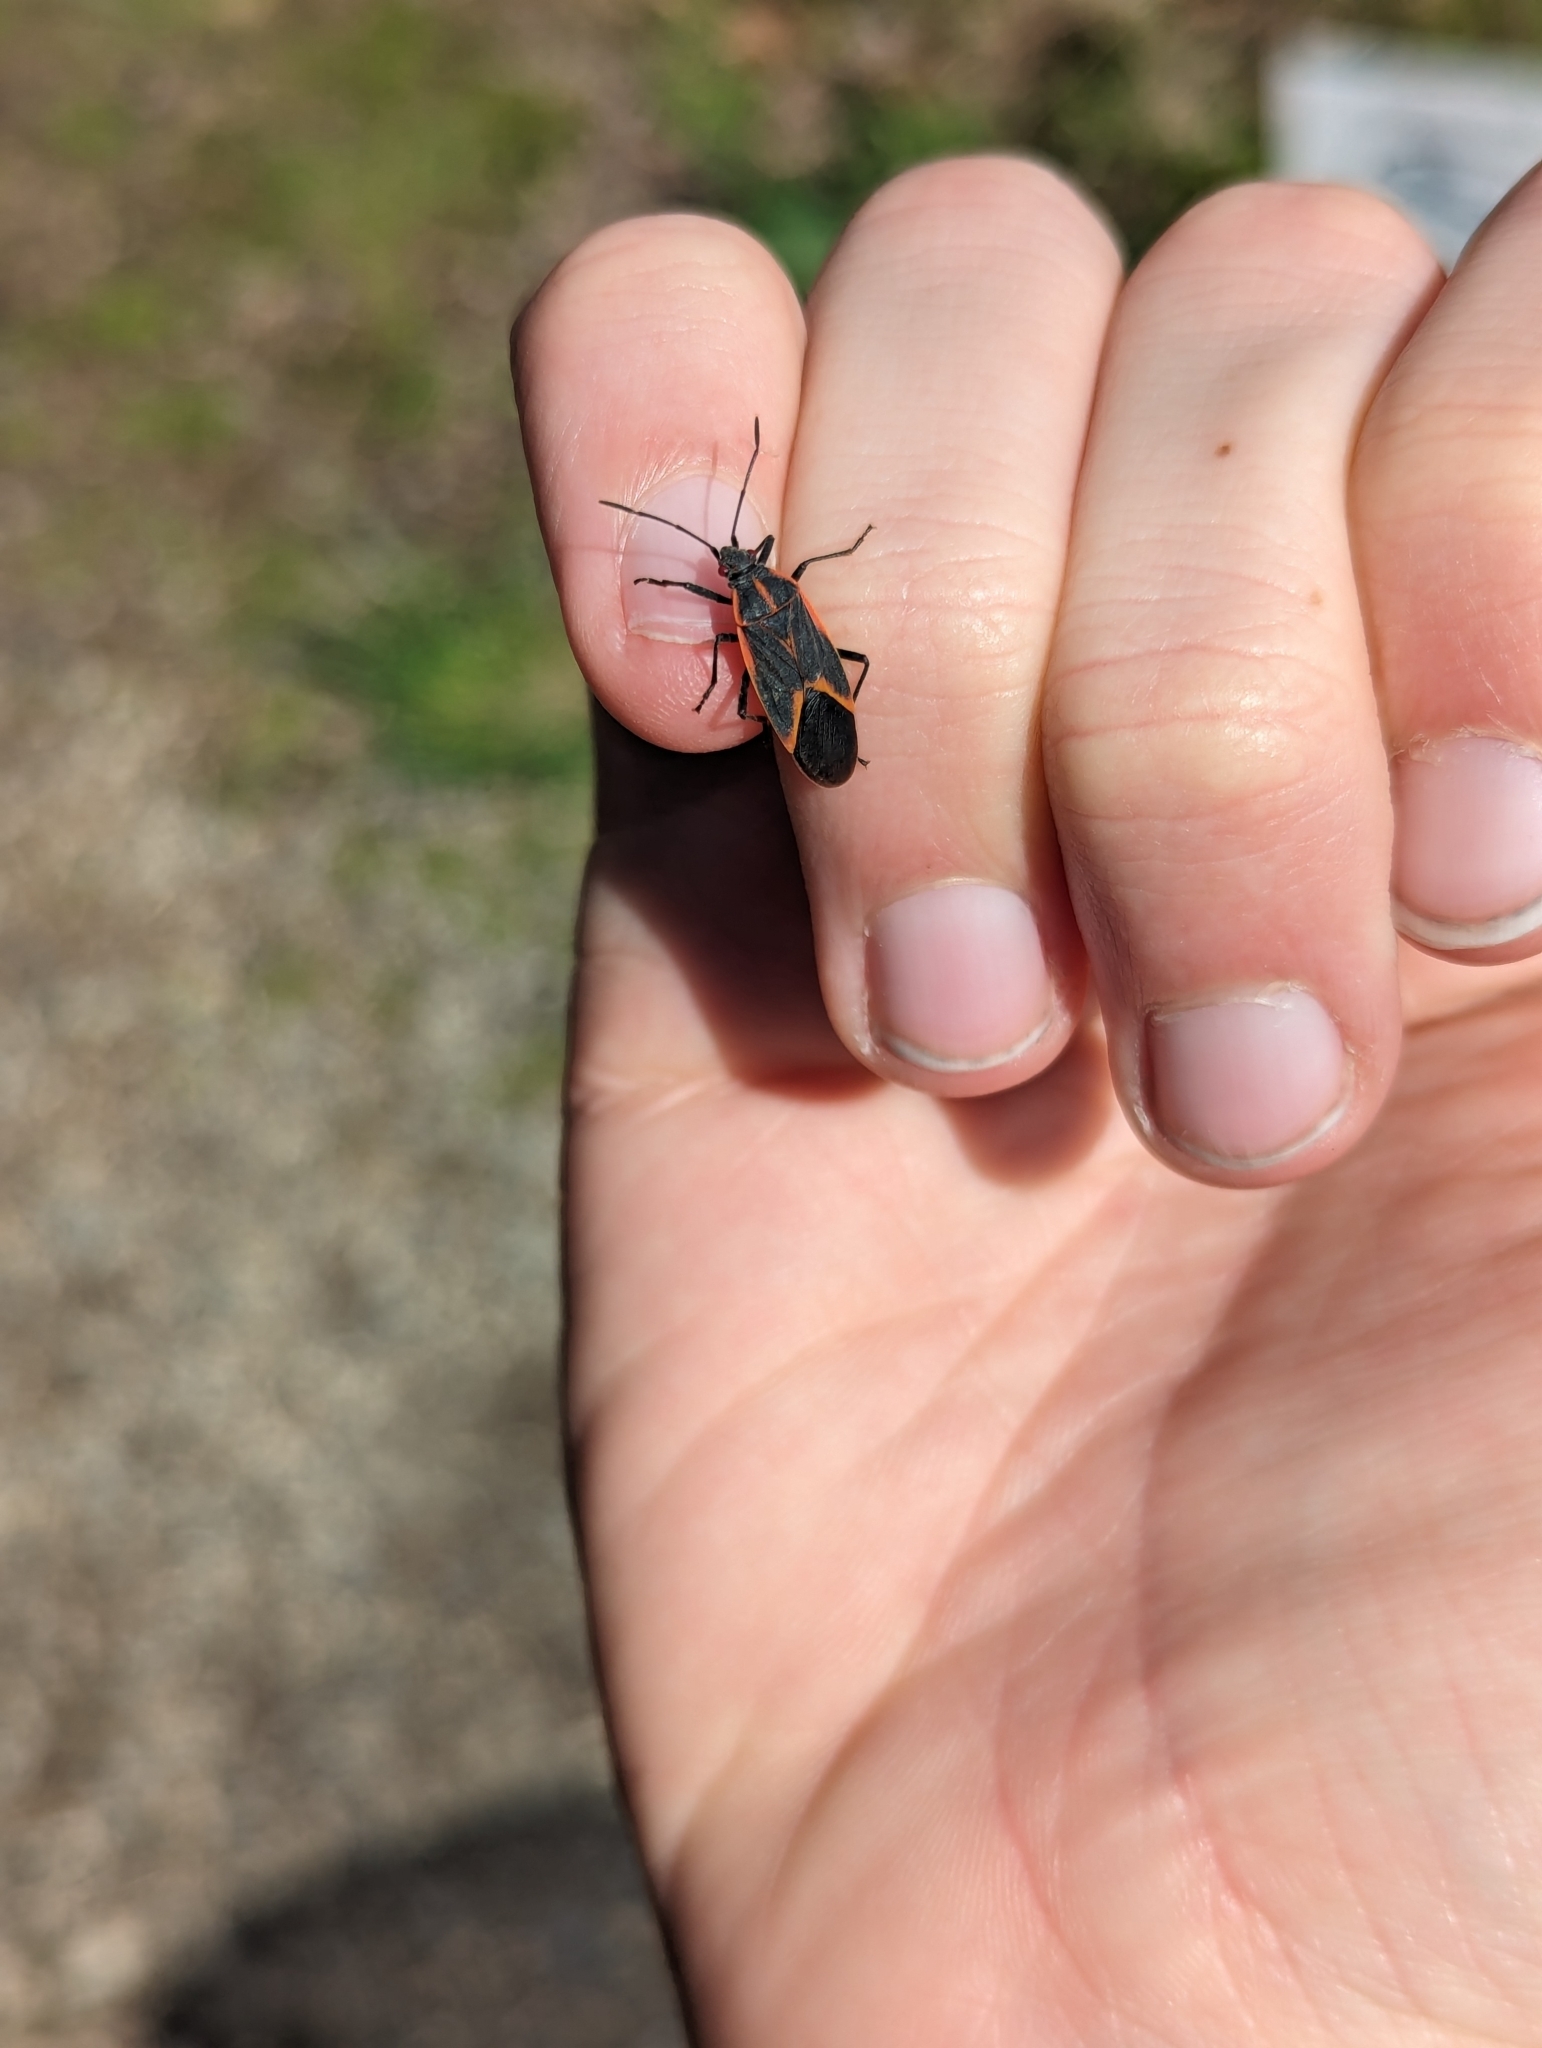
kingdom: Animalia
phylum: Arthropoda
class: Insecta
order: Hemiptera
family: Rhopalidae
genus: Boisea
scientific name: Boisea trivittata
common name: Boxelder bug
